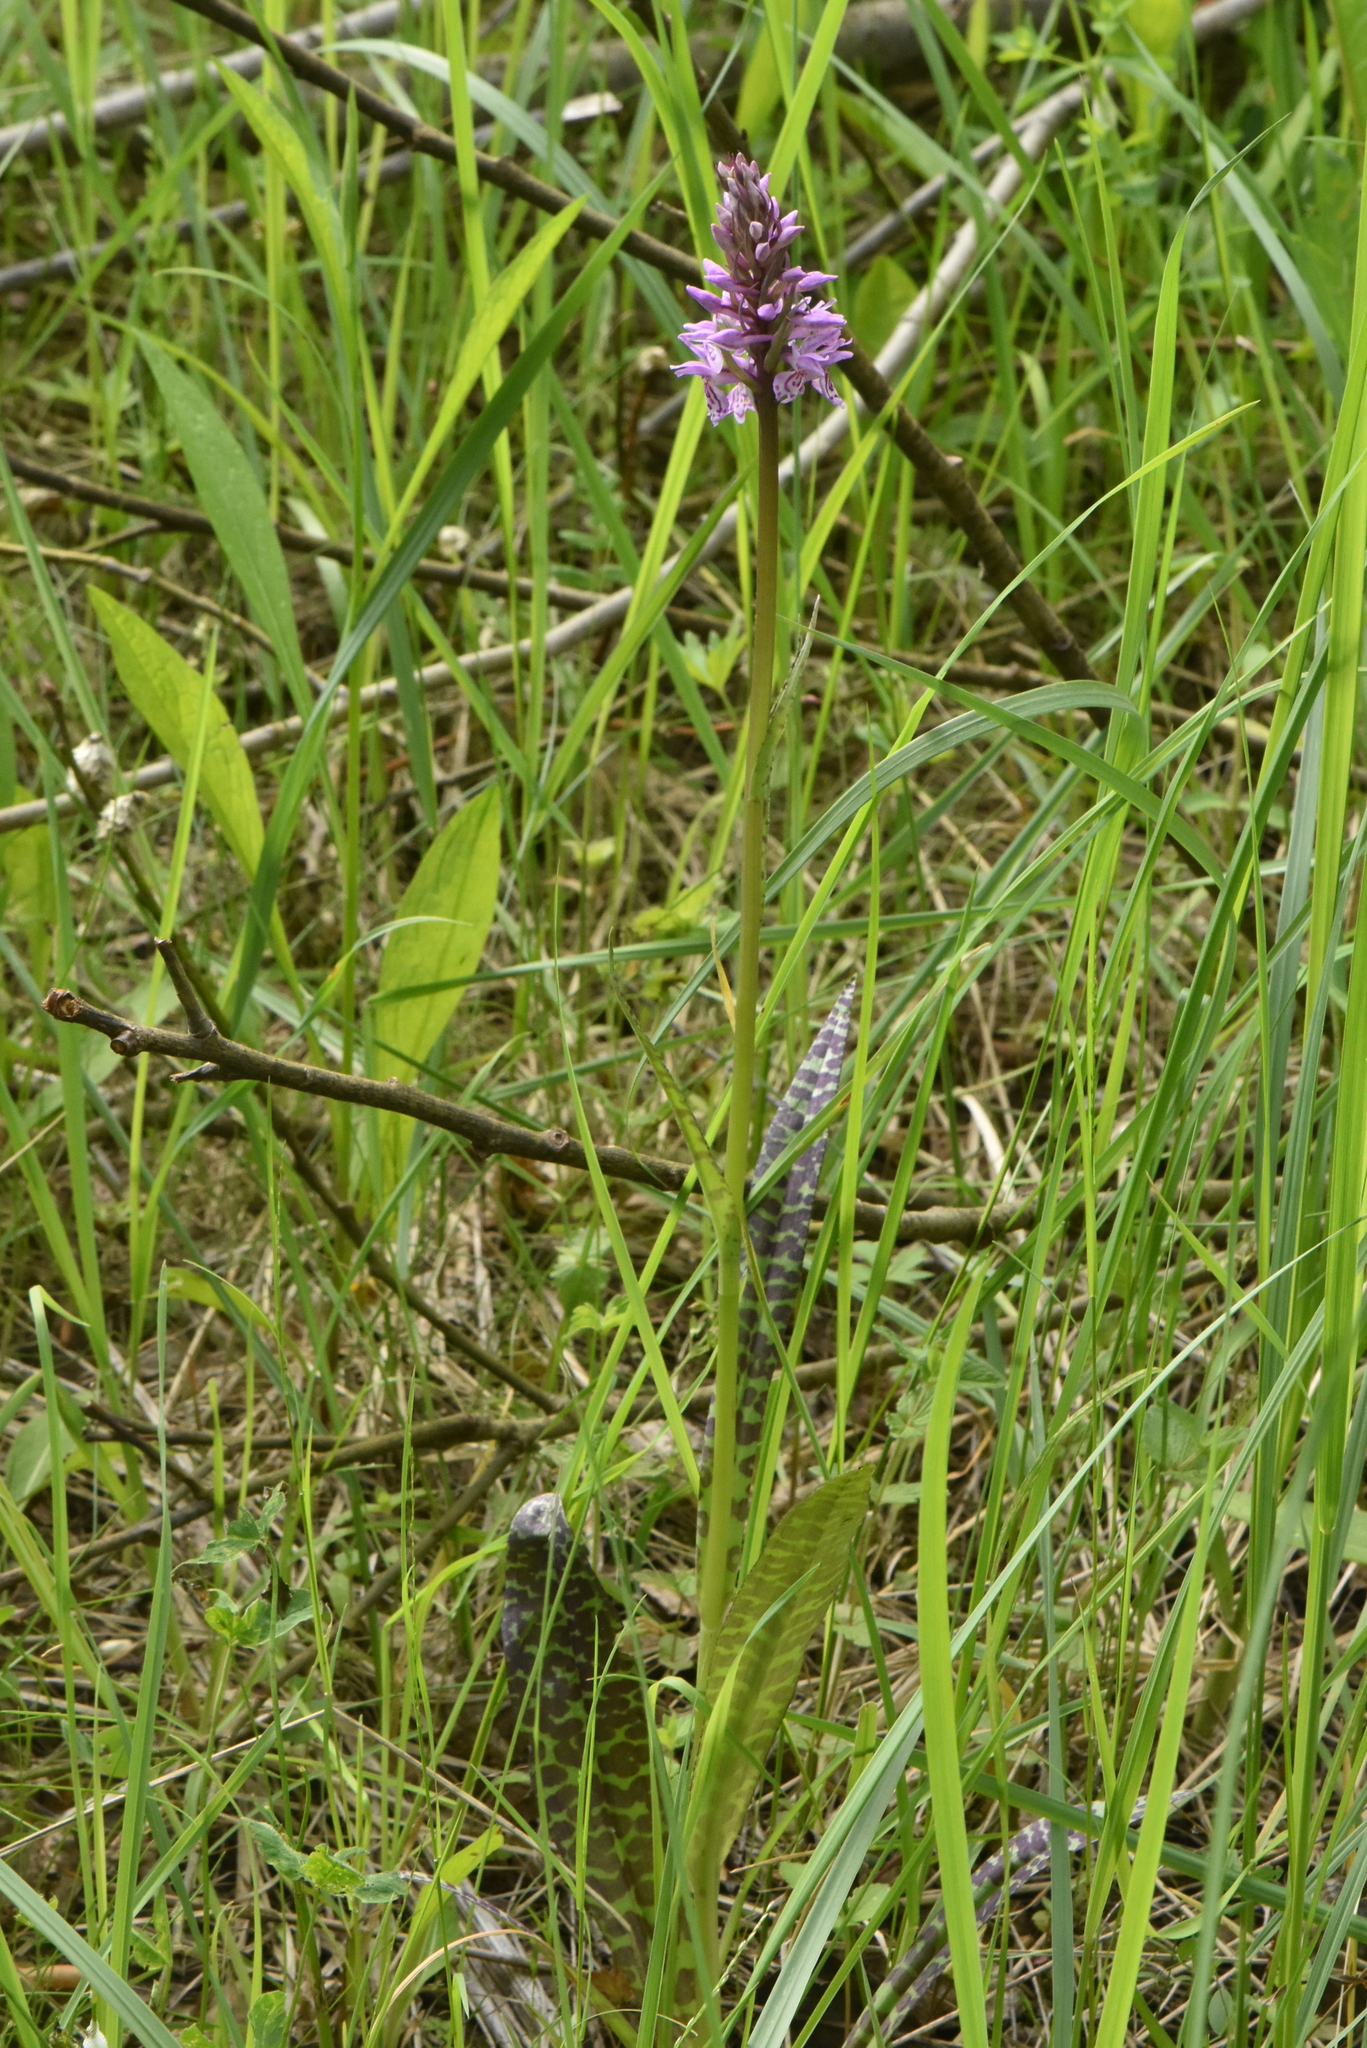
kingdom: Plantae
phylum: Tracheophyta
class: Liliopsida
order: Asparagales
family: Orchidaceae
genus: Dactylorhiza
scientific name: Dactylorhiza maculata
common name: Heath spotted-orchid
